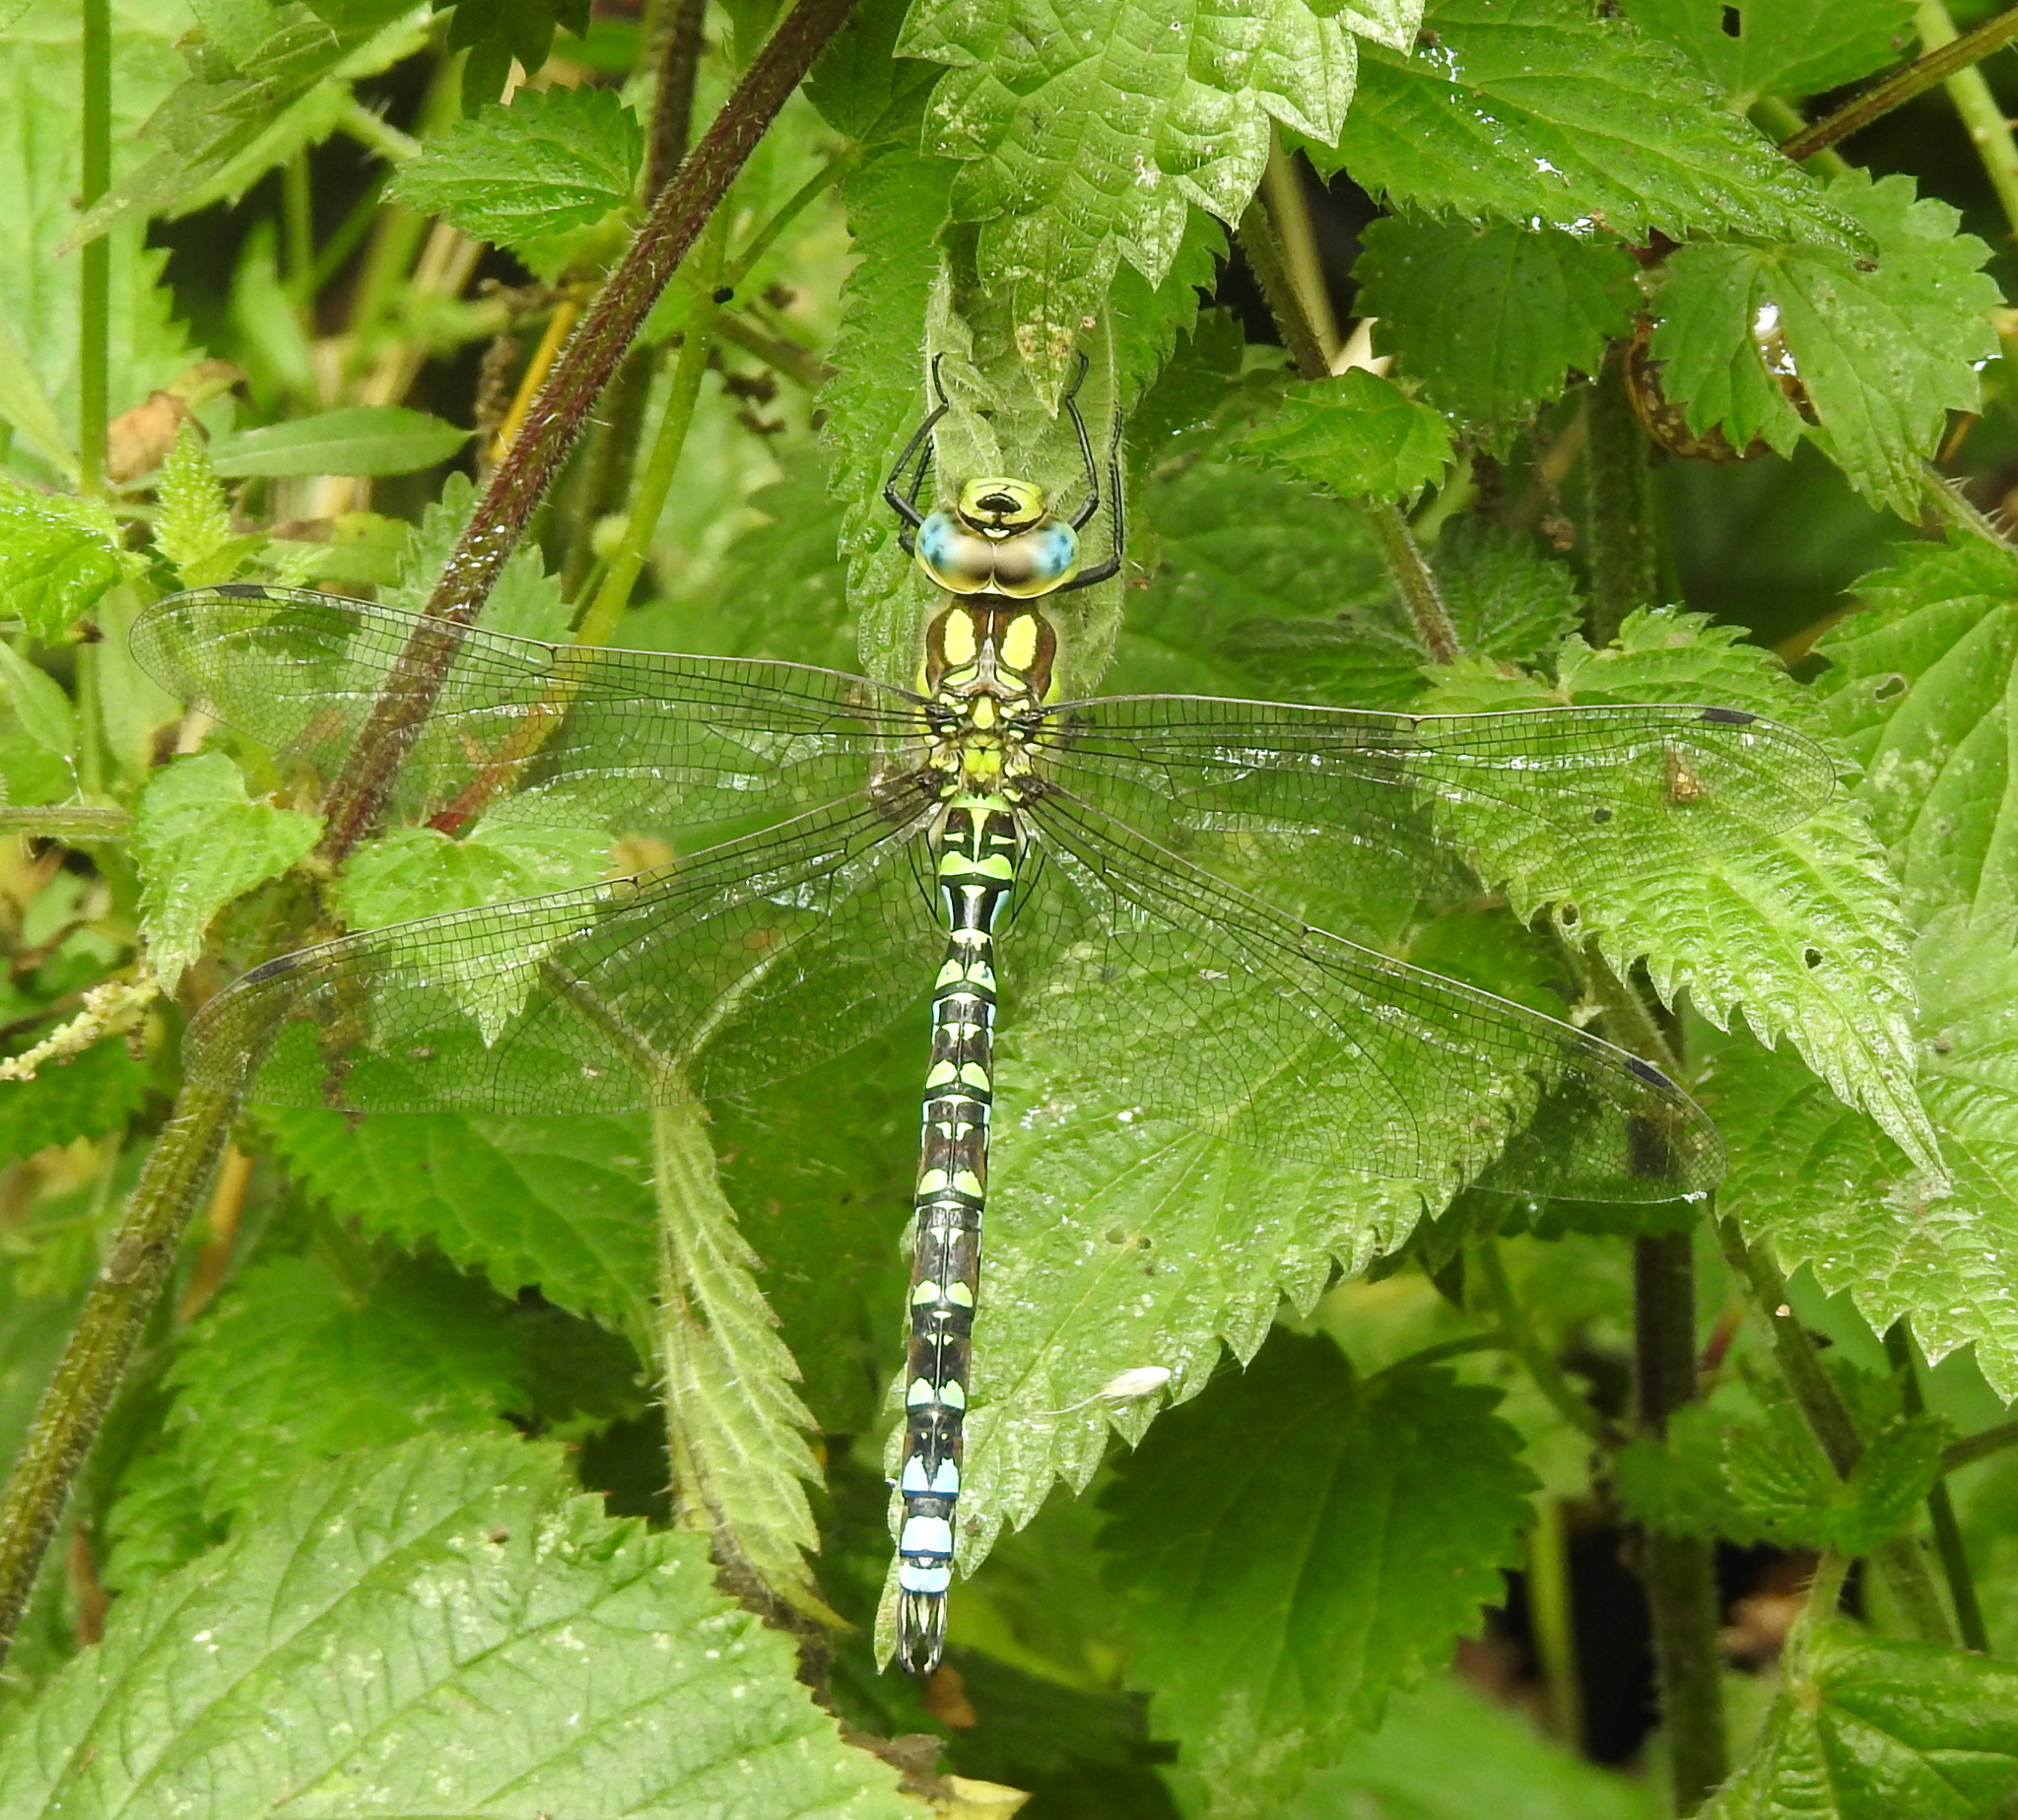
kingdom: Animalia
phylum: Arthropoda
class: Insecta
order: Odonata
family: Aeshnidae
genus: Aeshna
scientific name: Aeshna cyanea
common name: Southern hawker
